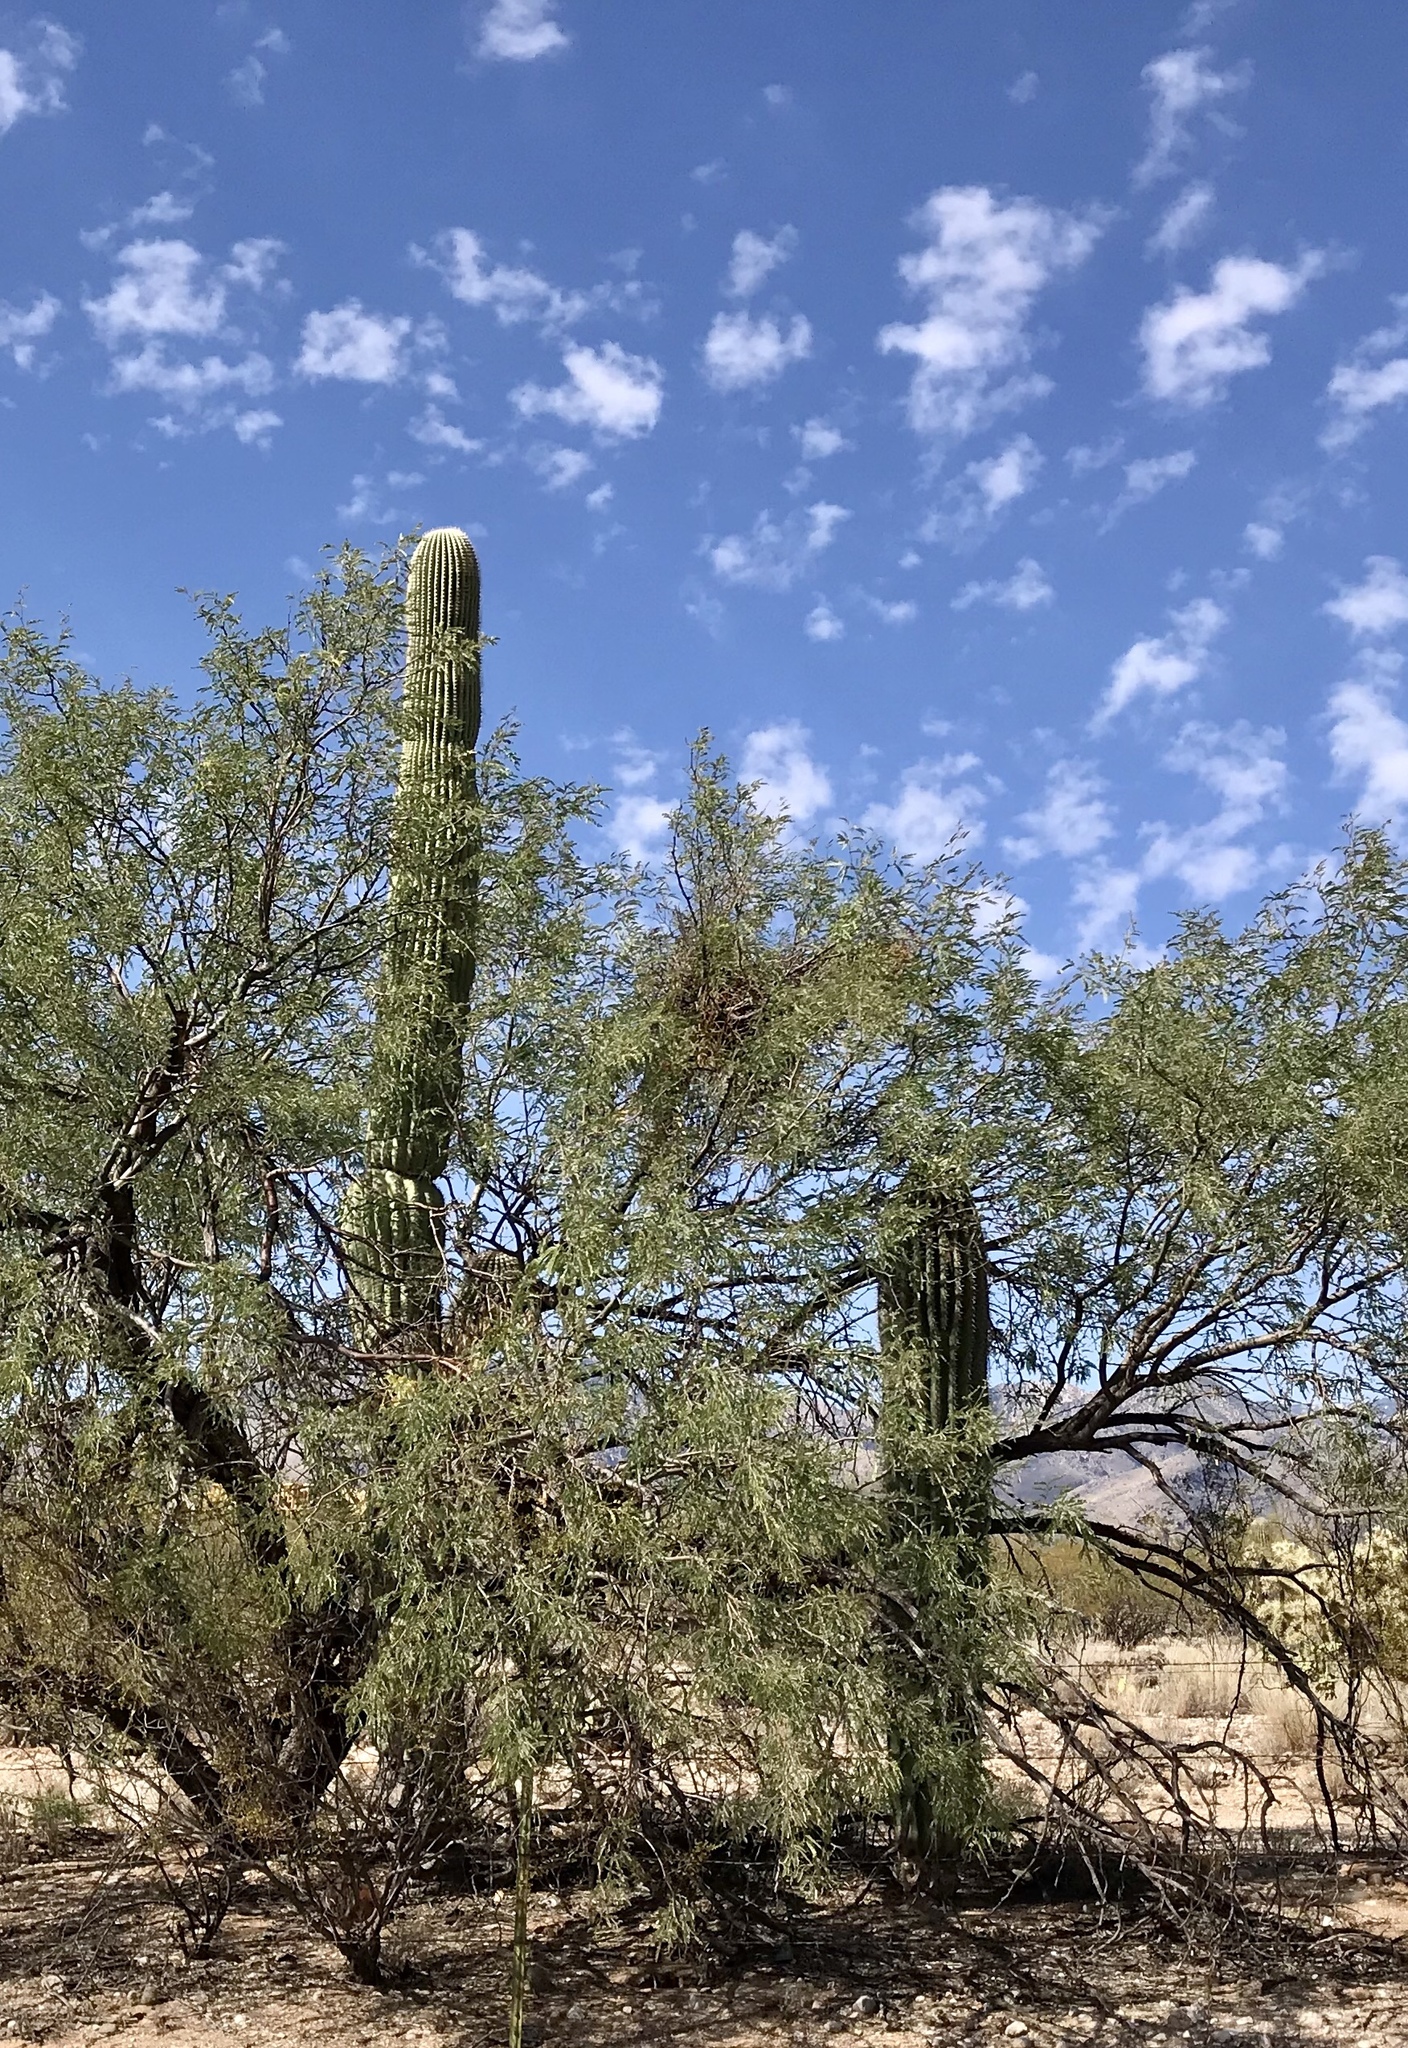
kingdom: Plantae
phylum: Tracheophyta
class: Magnoliopsida
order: Caryophyllales
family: Cactaceae
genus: Carnegiea
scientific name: Carnegiea gigantea
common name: Saguaro
